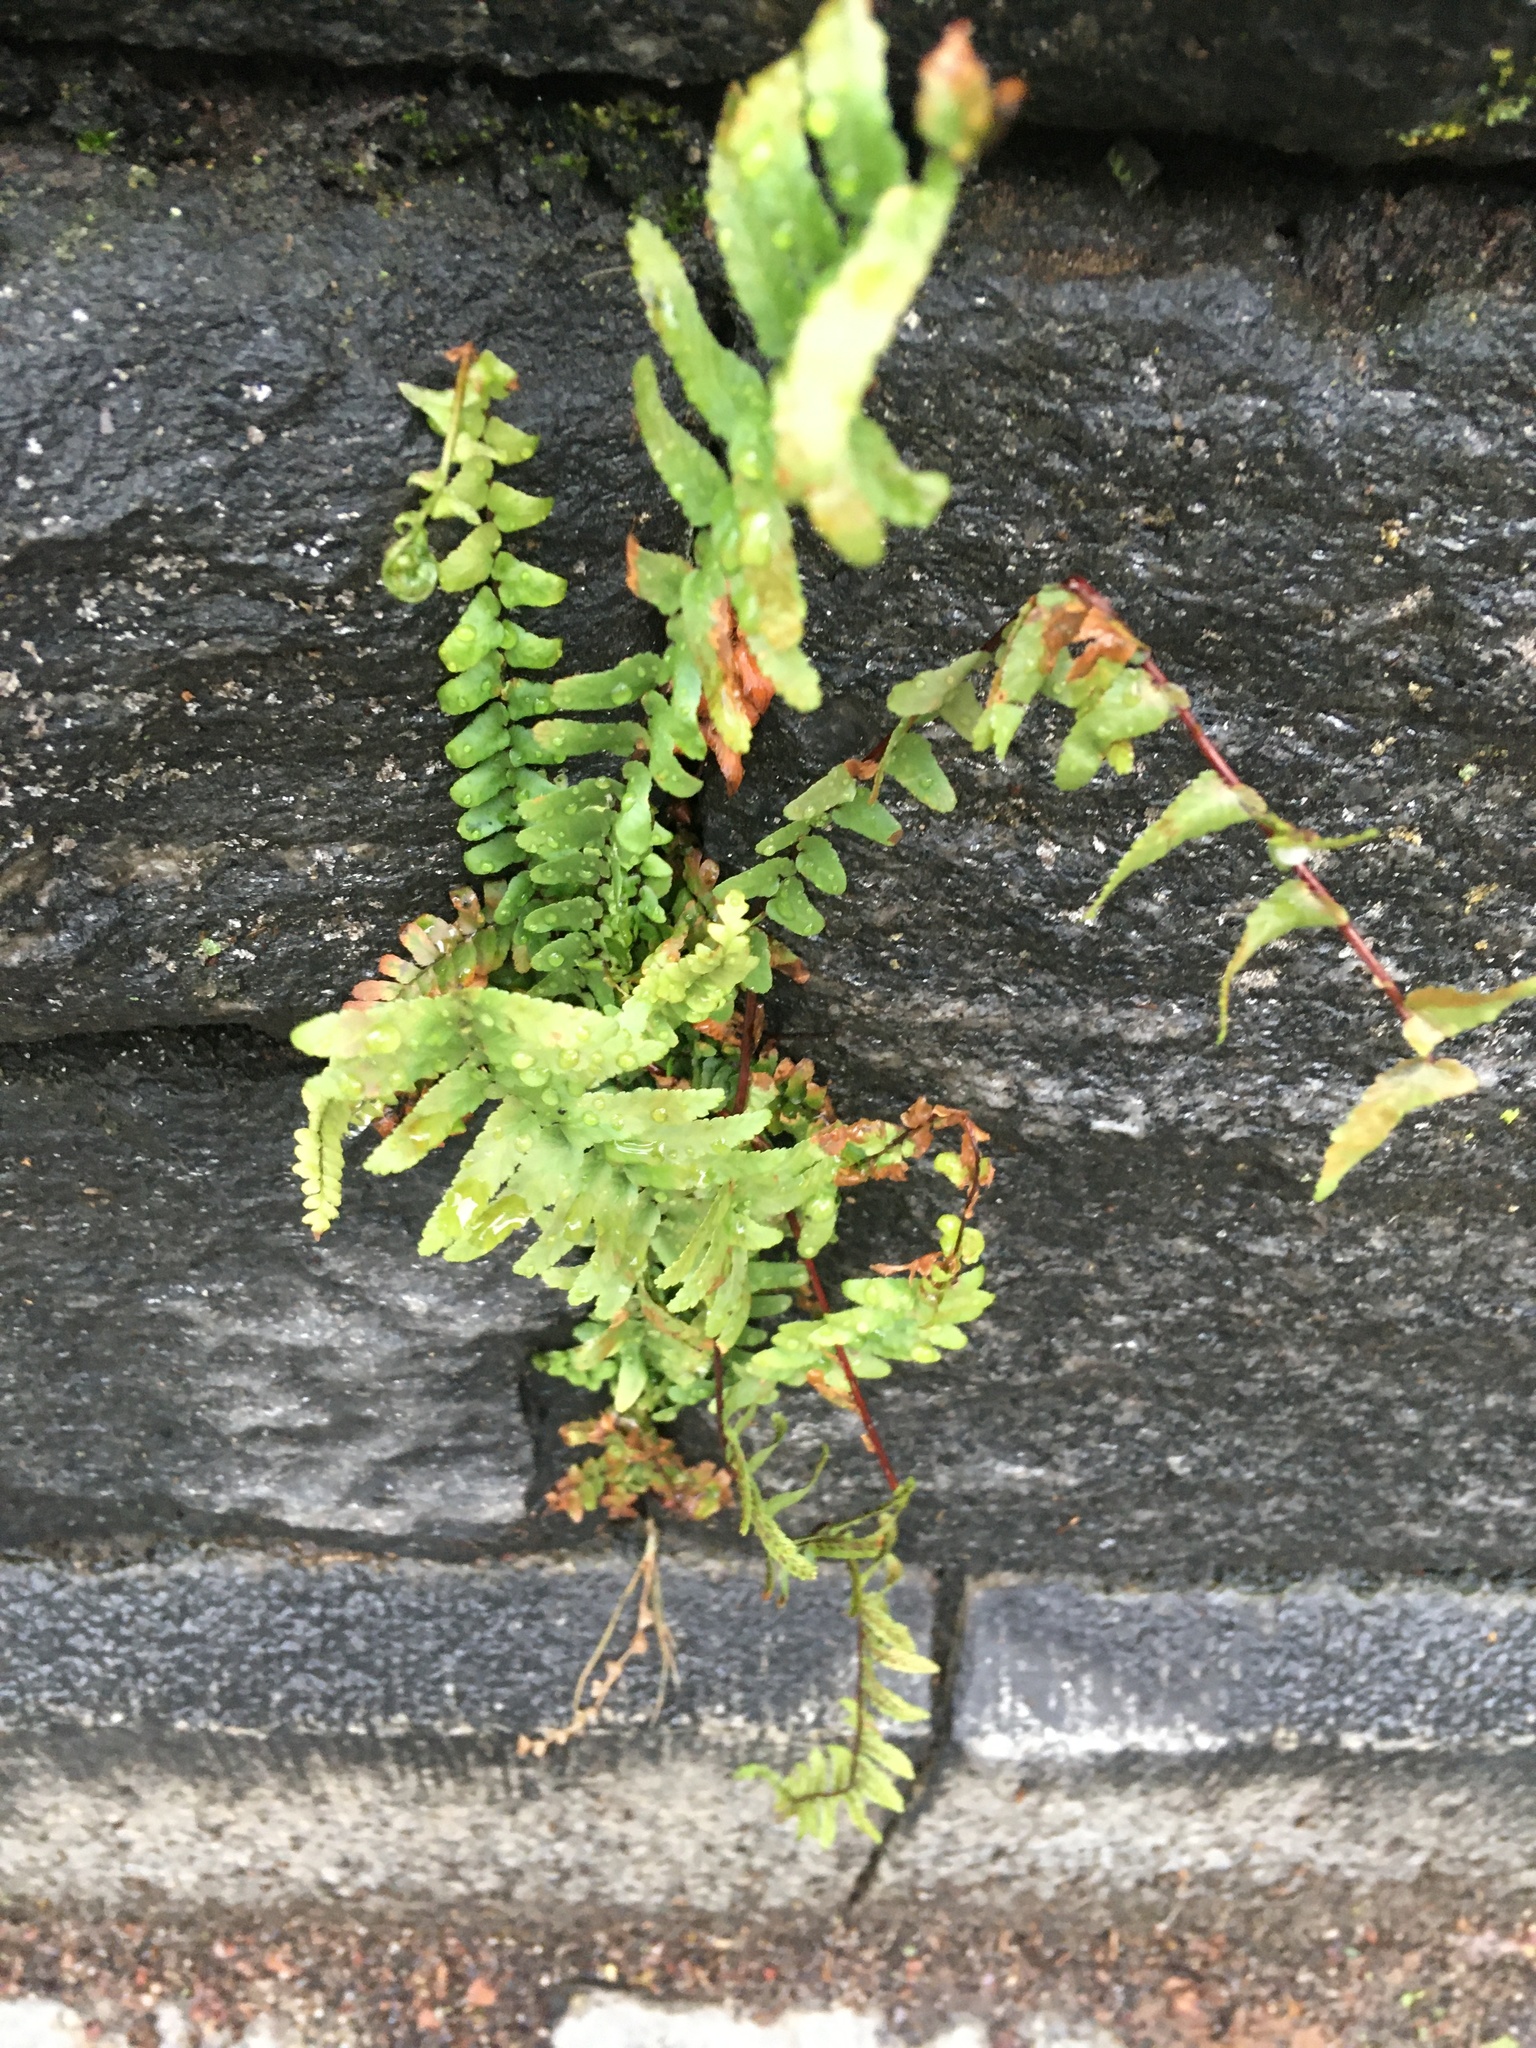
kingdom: Plantae
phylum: Tracheophyta
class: Polypodiopsida
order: Polypodiales
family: Aspleniaceae
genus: Asplenium
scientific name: Asplenium platyneuron
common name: Ebony spleenwort
